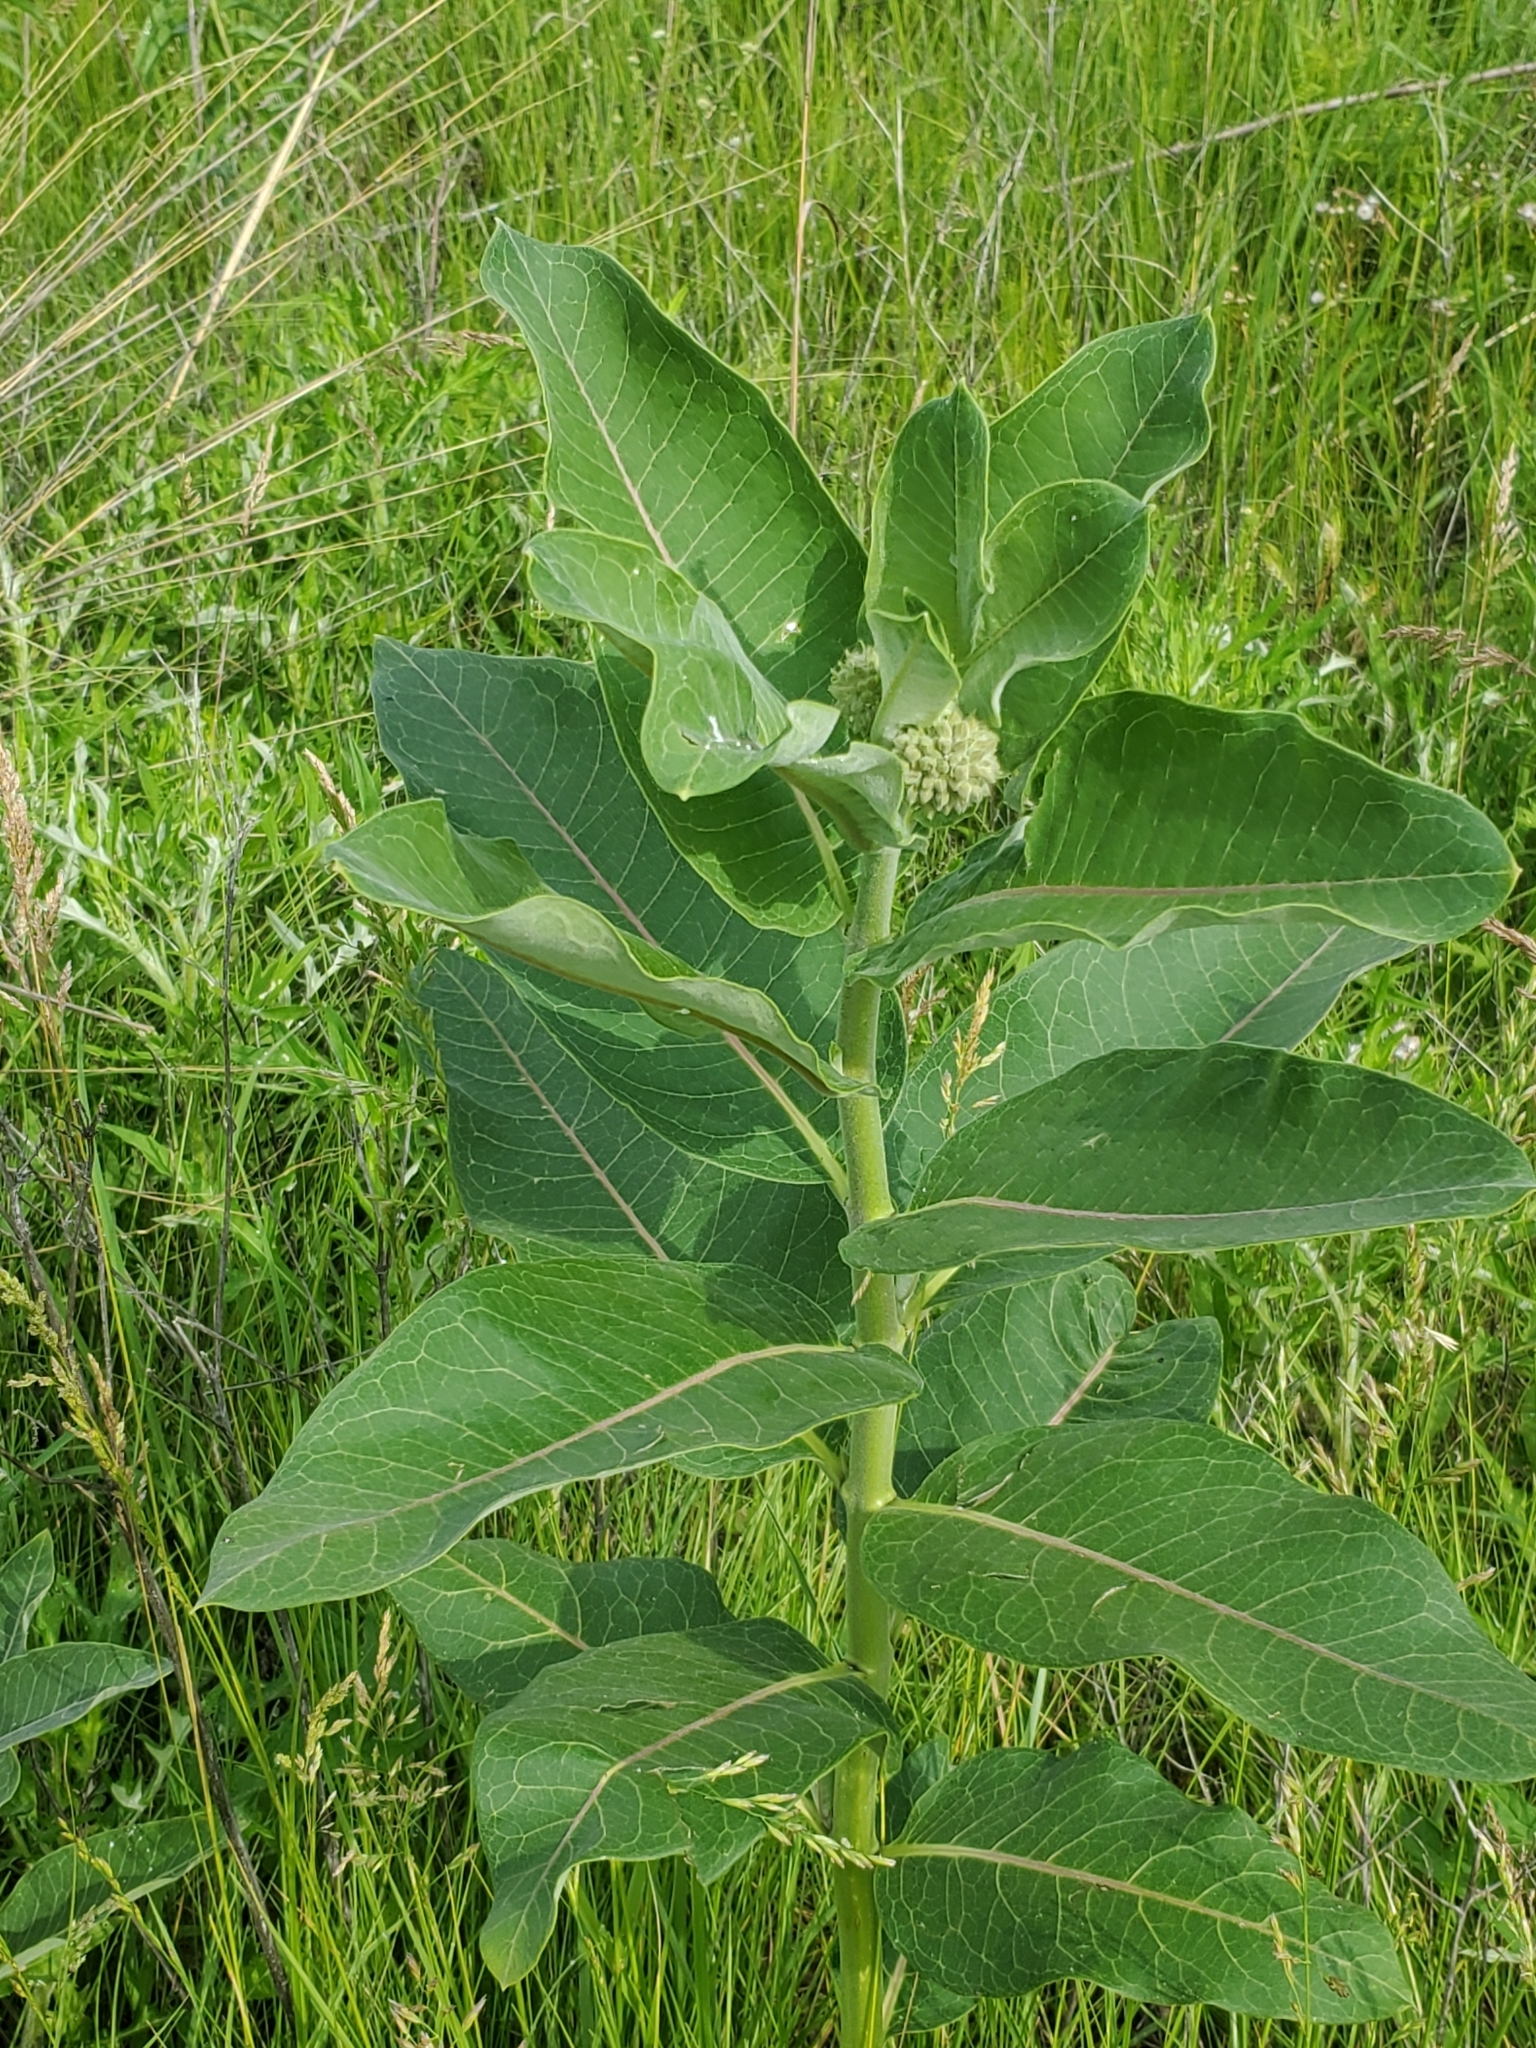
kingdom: Plantae
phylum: Tracheophyta
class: Magnoliopsida
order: Gentianales
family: Apocynaceae
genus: Asclepias
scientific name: Asclepias syriaca
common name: Common milkweed
